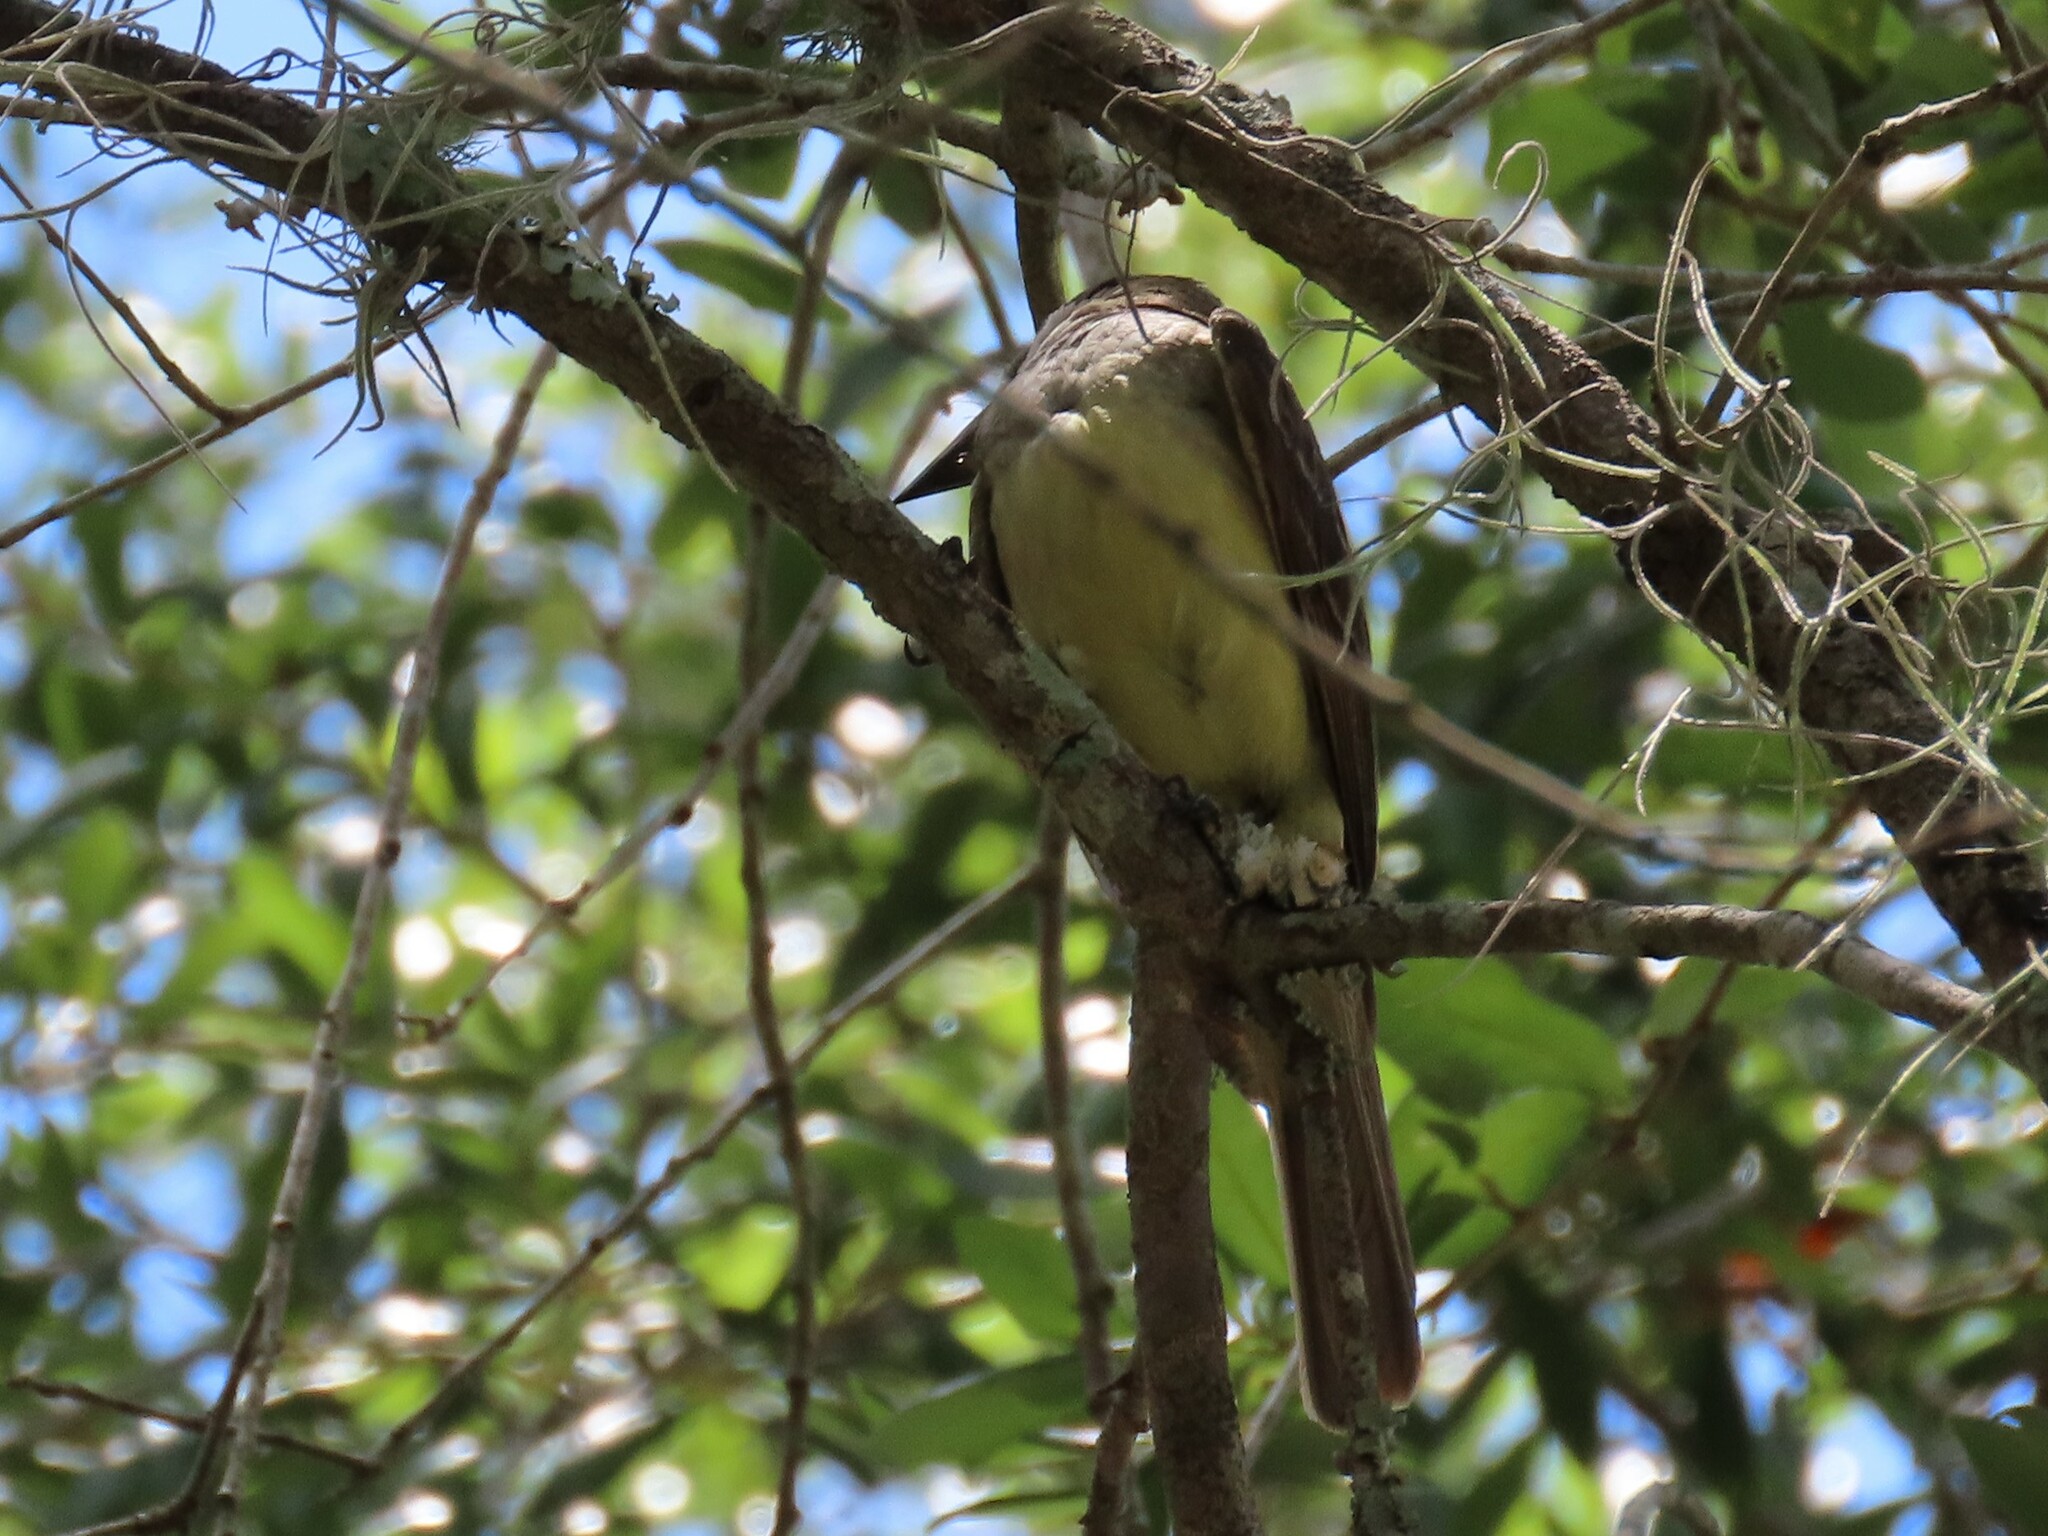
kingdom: Animalia
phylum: Chordata
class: Aves
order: Passeriformes
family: Tyrannidae
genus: Myiarchus
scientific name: Myiarchus crinitus
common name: Great crested flycatcher
